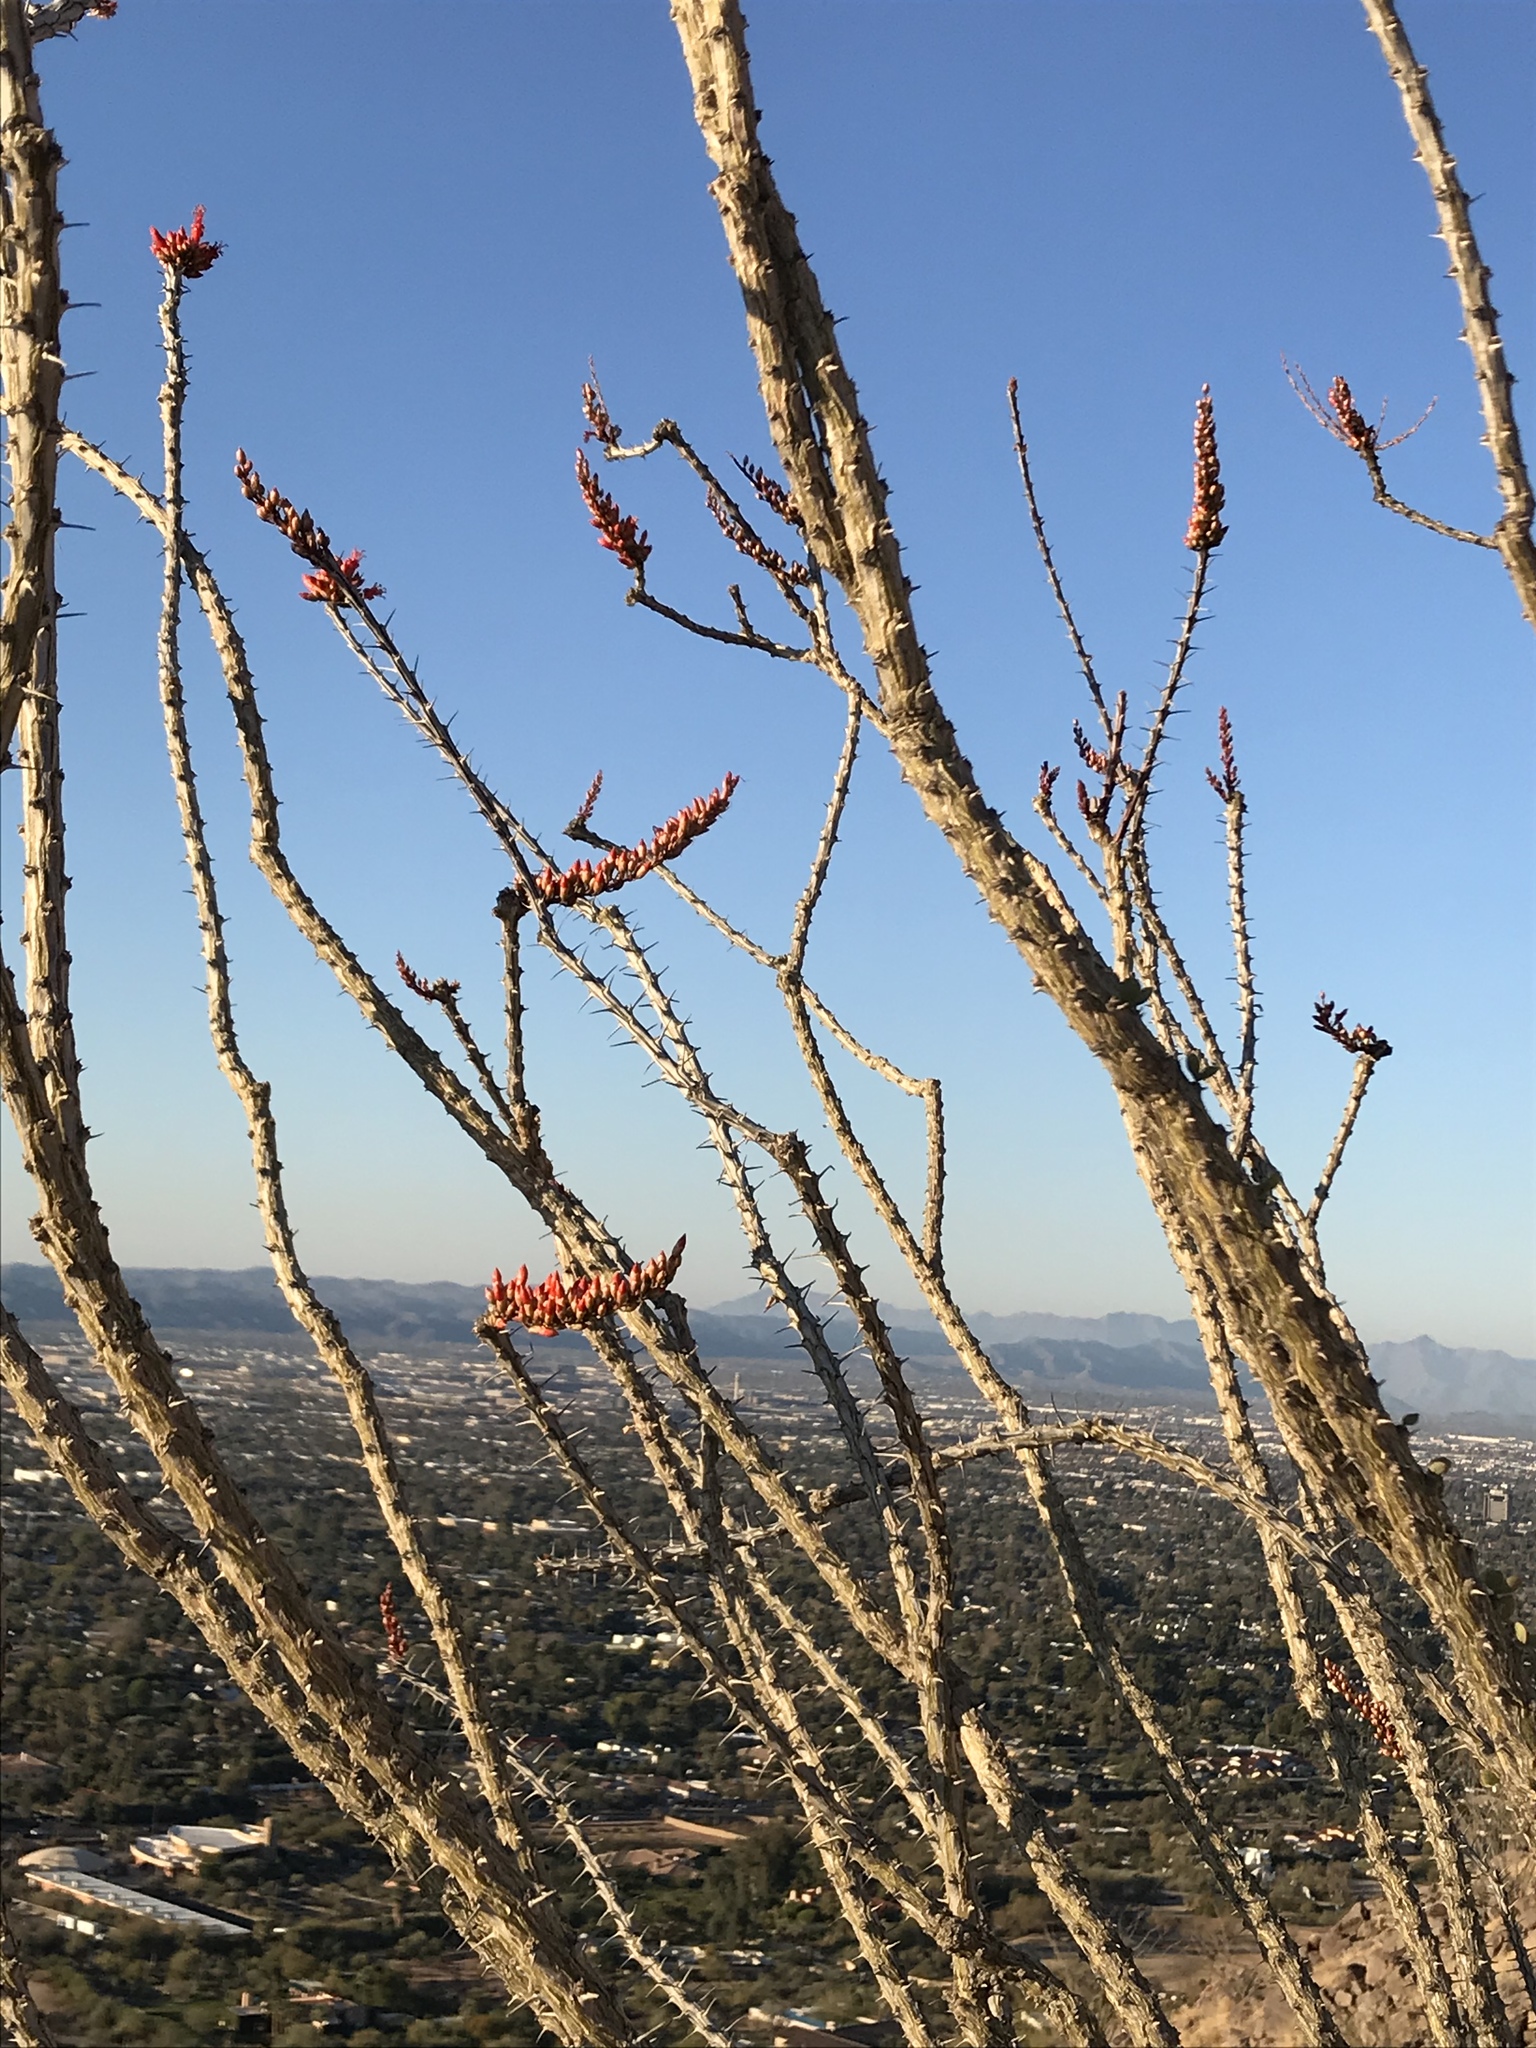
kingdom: Plantae
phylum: Tracheophyta
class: Magnoliopsida
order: Ericales
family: Fouquieriaceae
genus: Fouquieria
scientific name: Fouquieria splendens
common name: Vine-cactus
